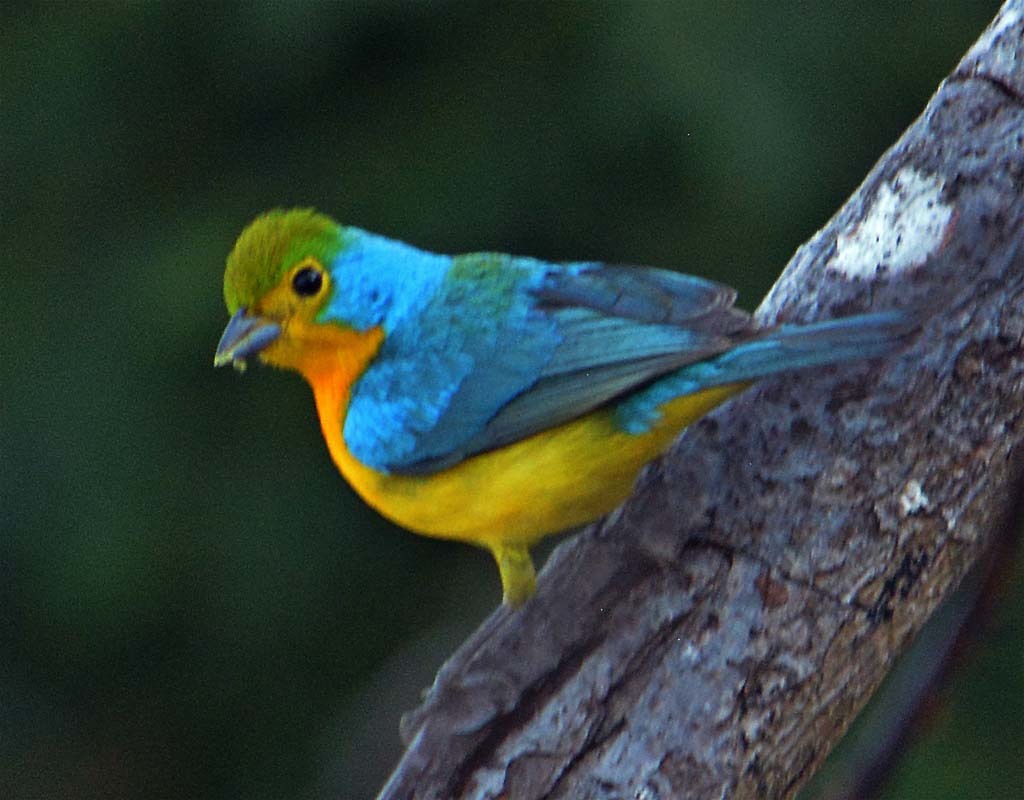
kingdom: Animalia
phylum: Chordata
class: Aves
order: Passeriformes
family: Cardinalidae
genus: Passerina
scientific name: Passerina leclancherii
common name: Orange-breasted bunting
